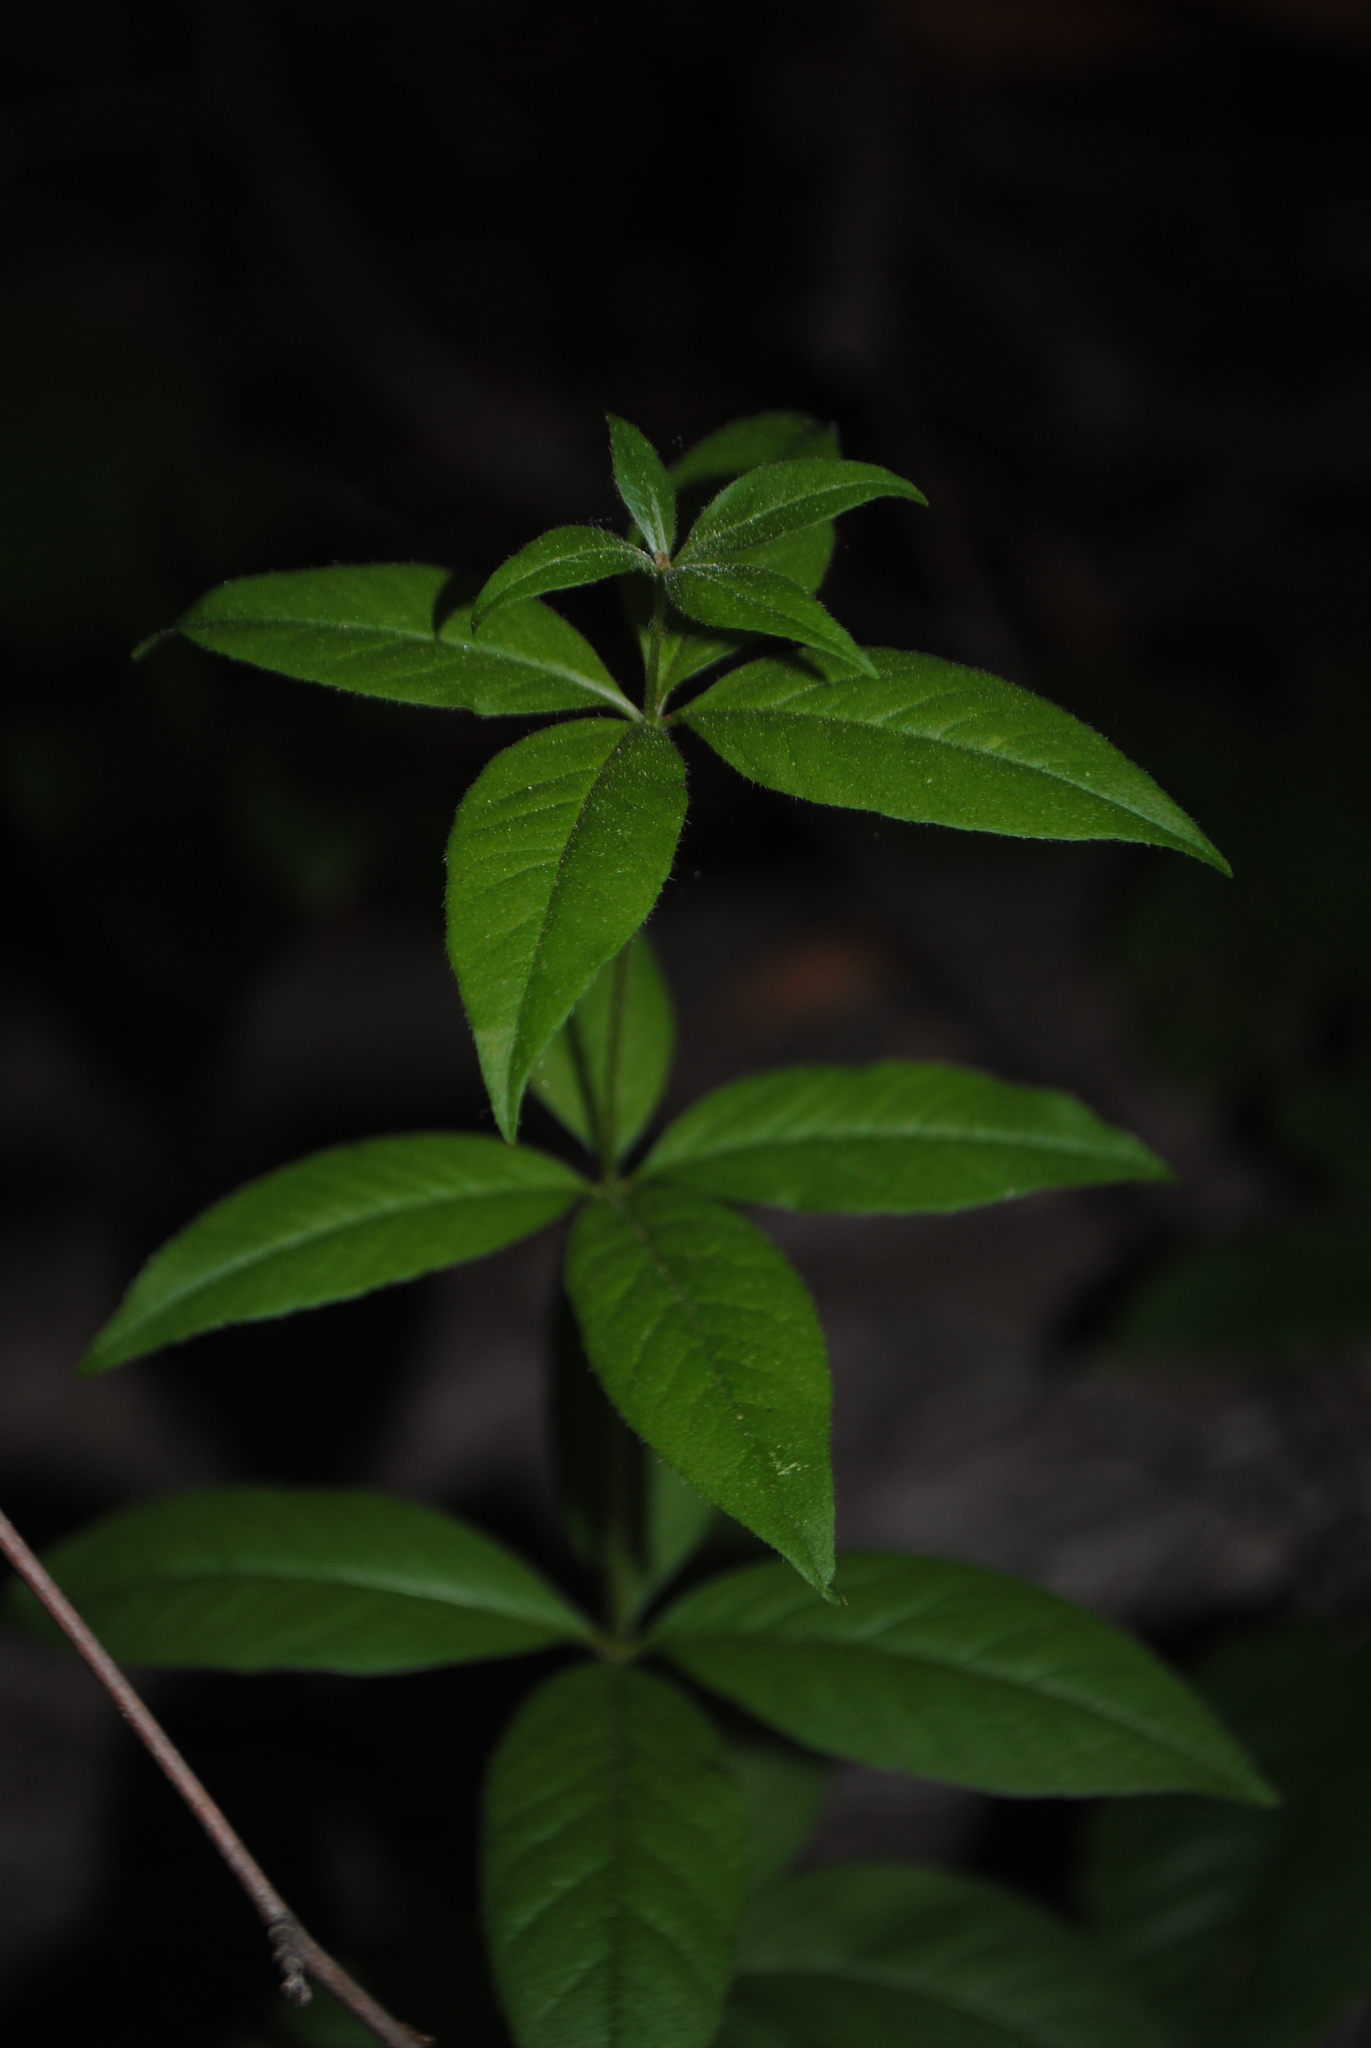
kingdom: Plantae
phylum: Tracheophyta
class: Magnoliopsida
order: Ericales
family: Primulaceae
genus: Lysimachia
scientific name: Lysimachia quadrifolia
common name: Whorled loosestrife
